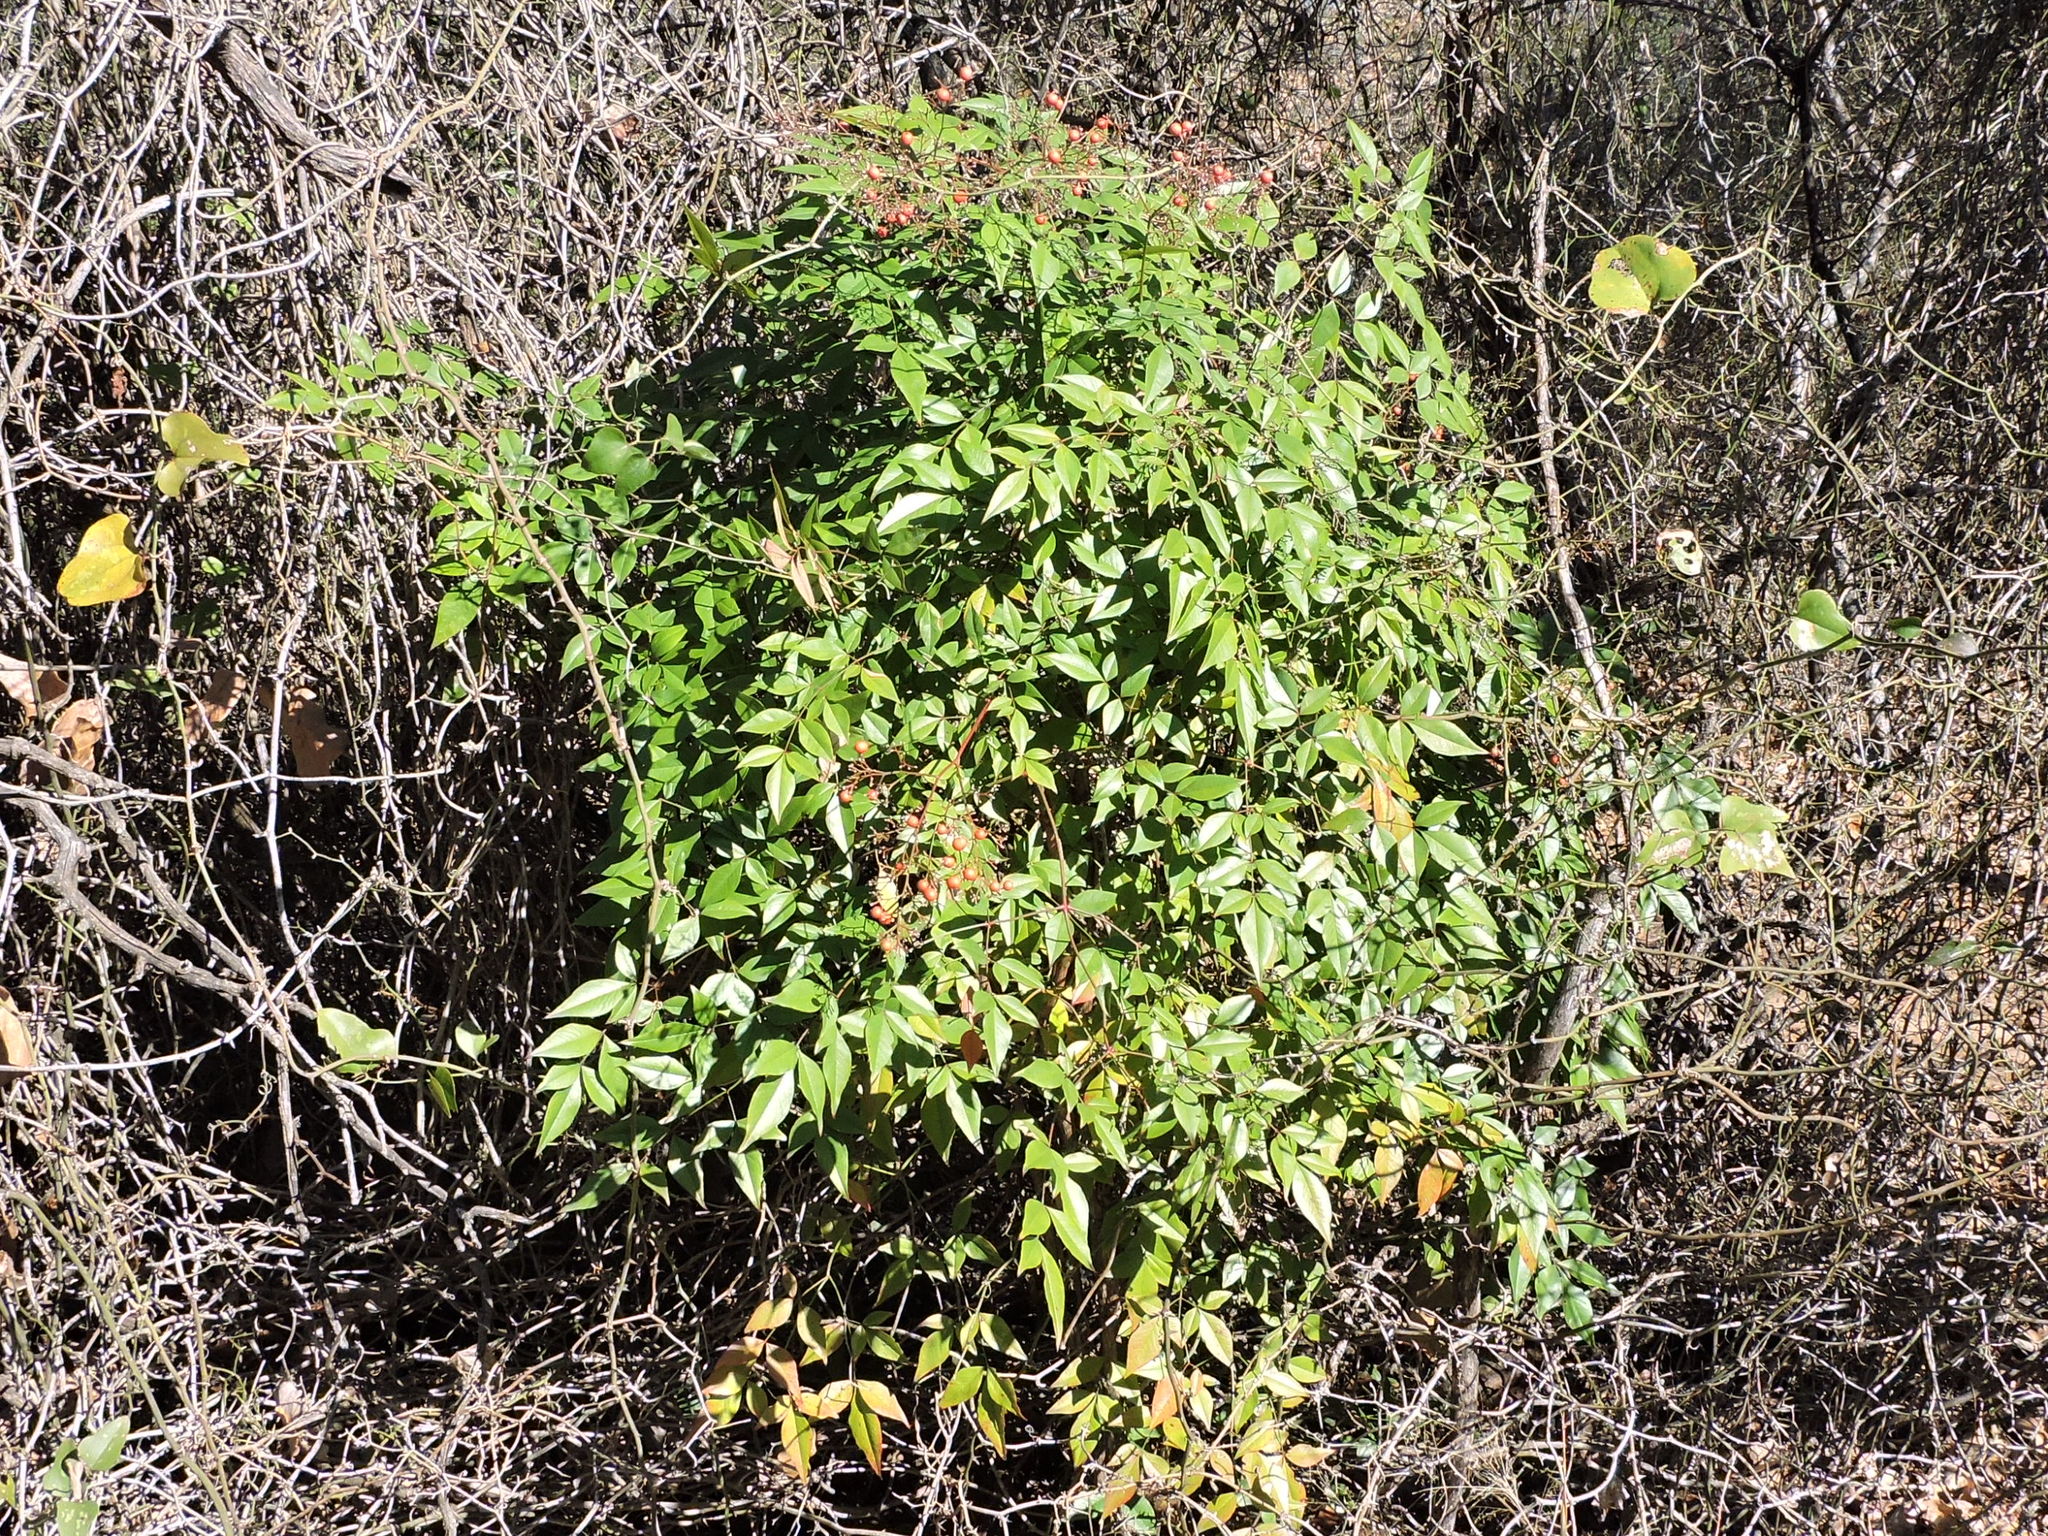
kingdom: Plantae
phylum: Tracheophyta
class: Magnoliopsida
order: Ranunculales
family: Berberidaceae
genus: Nandina
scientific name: Nandina domestica
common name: Sacred bamboo
